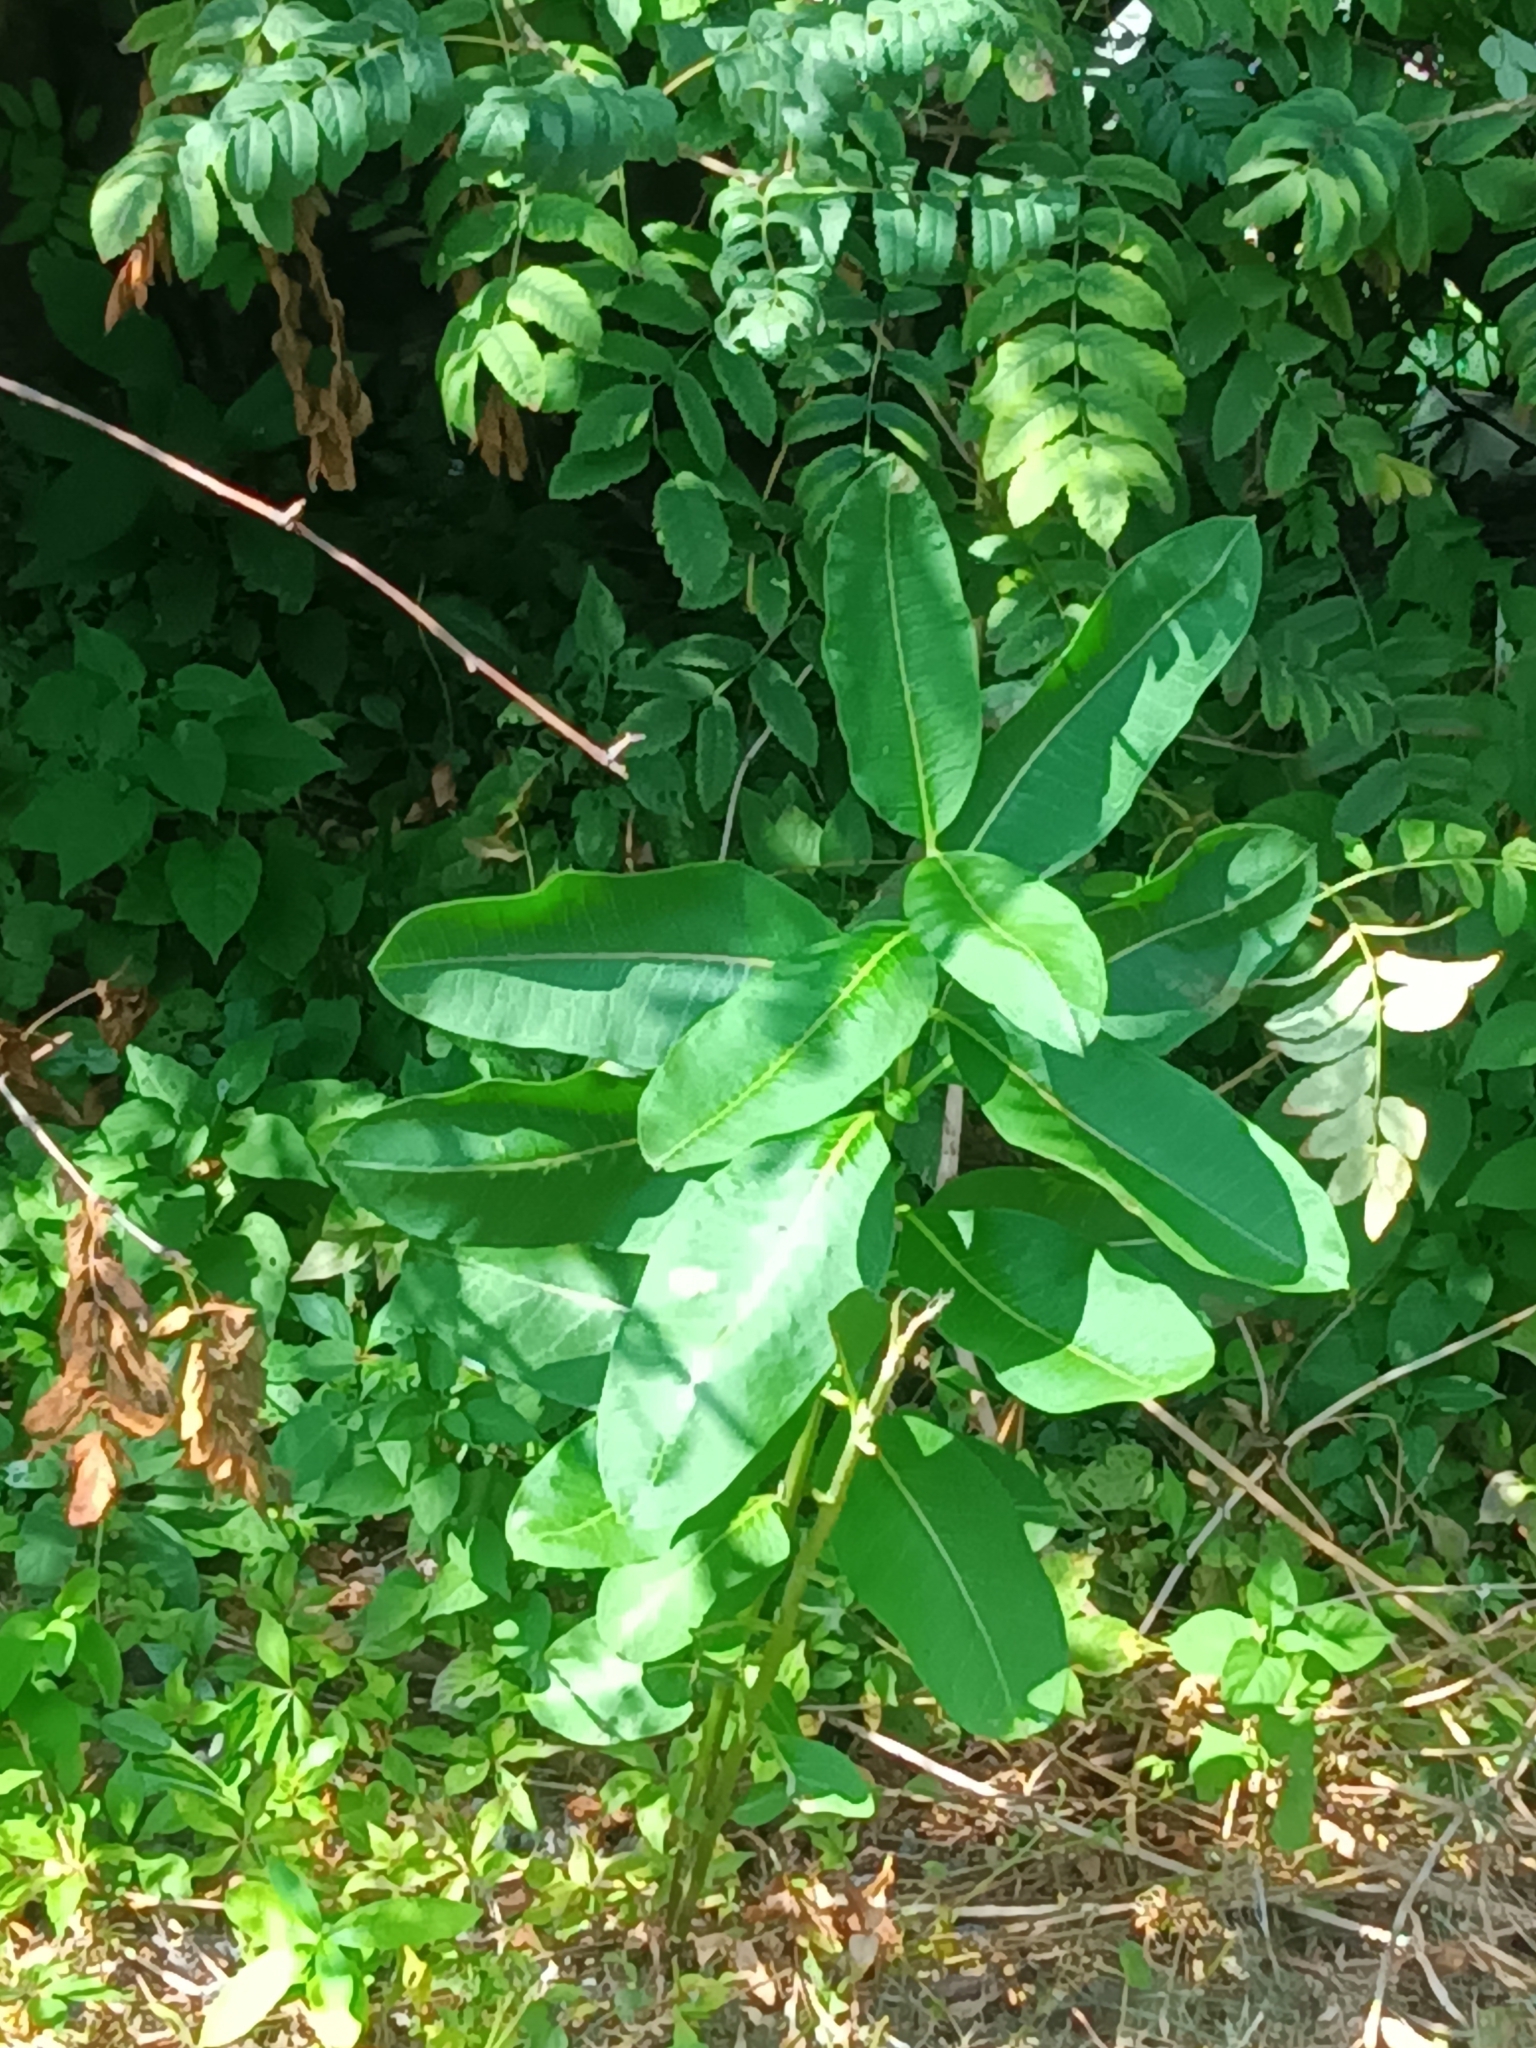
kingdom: Plantae
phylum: Tracheophyta
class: Magnoliopsida
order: Gentianales
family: Apocynaceae
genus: Asclepias
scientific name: Asclepias syriaca
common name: Common milkweed
